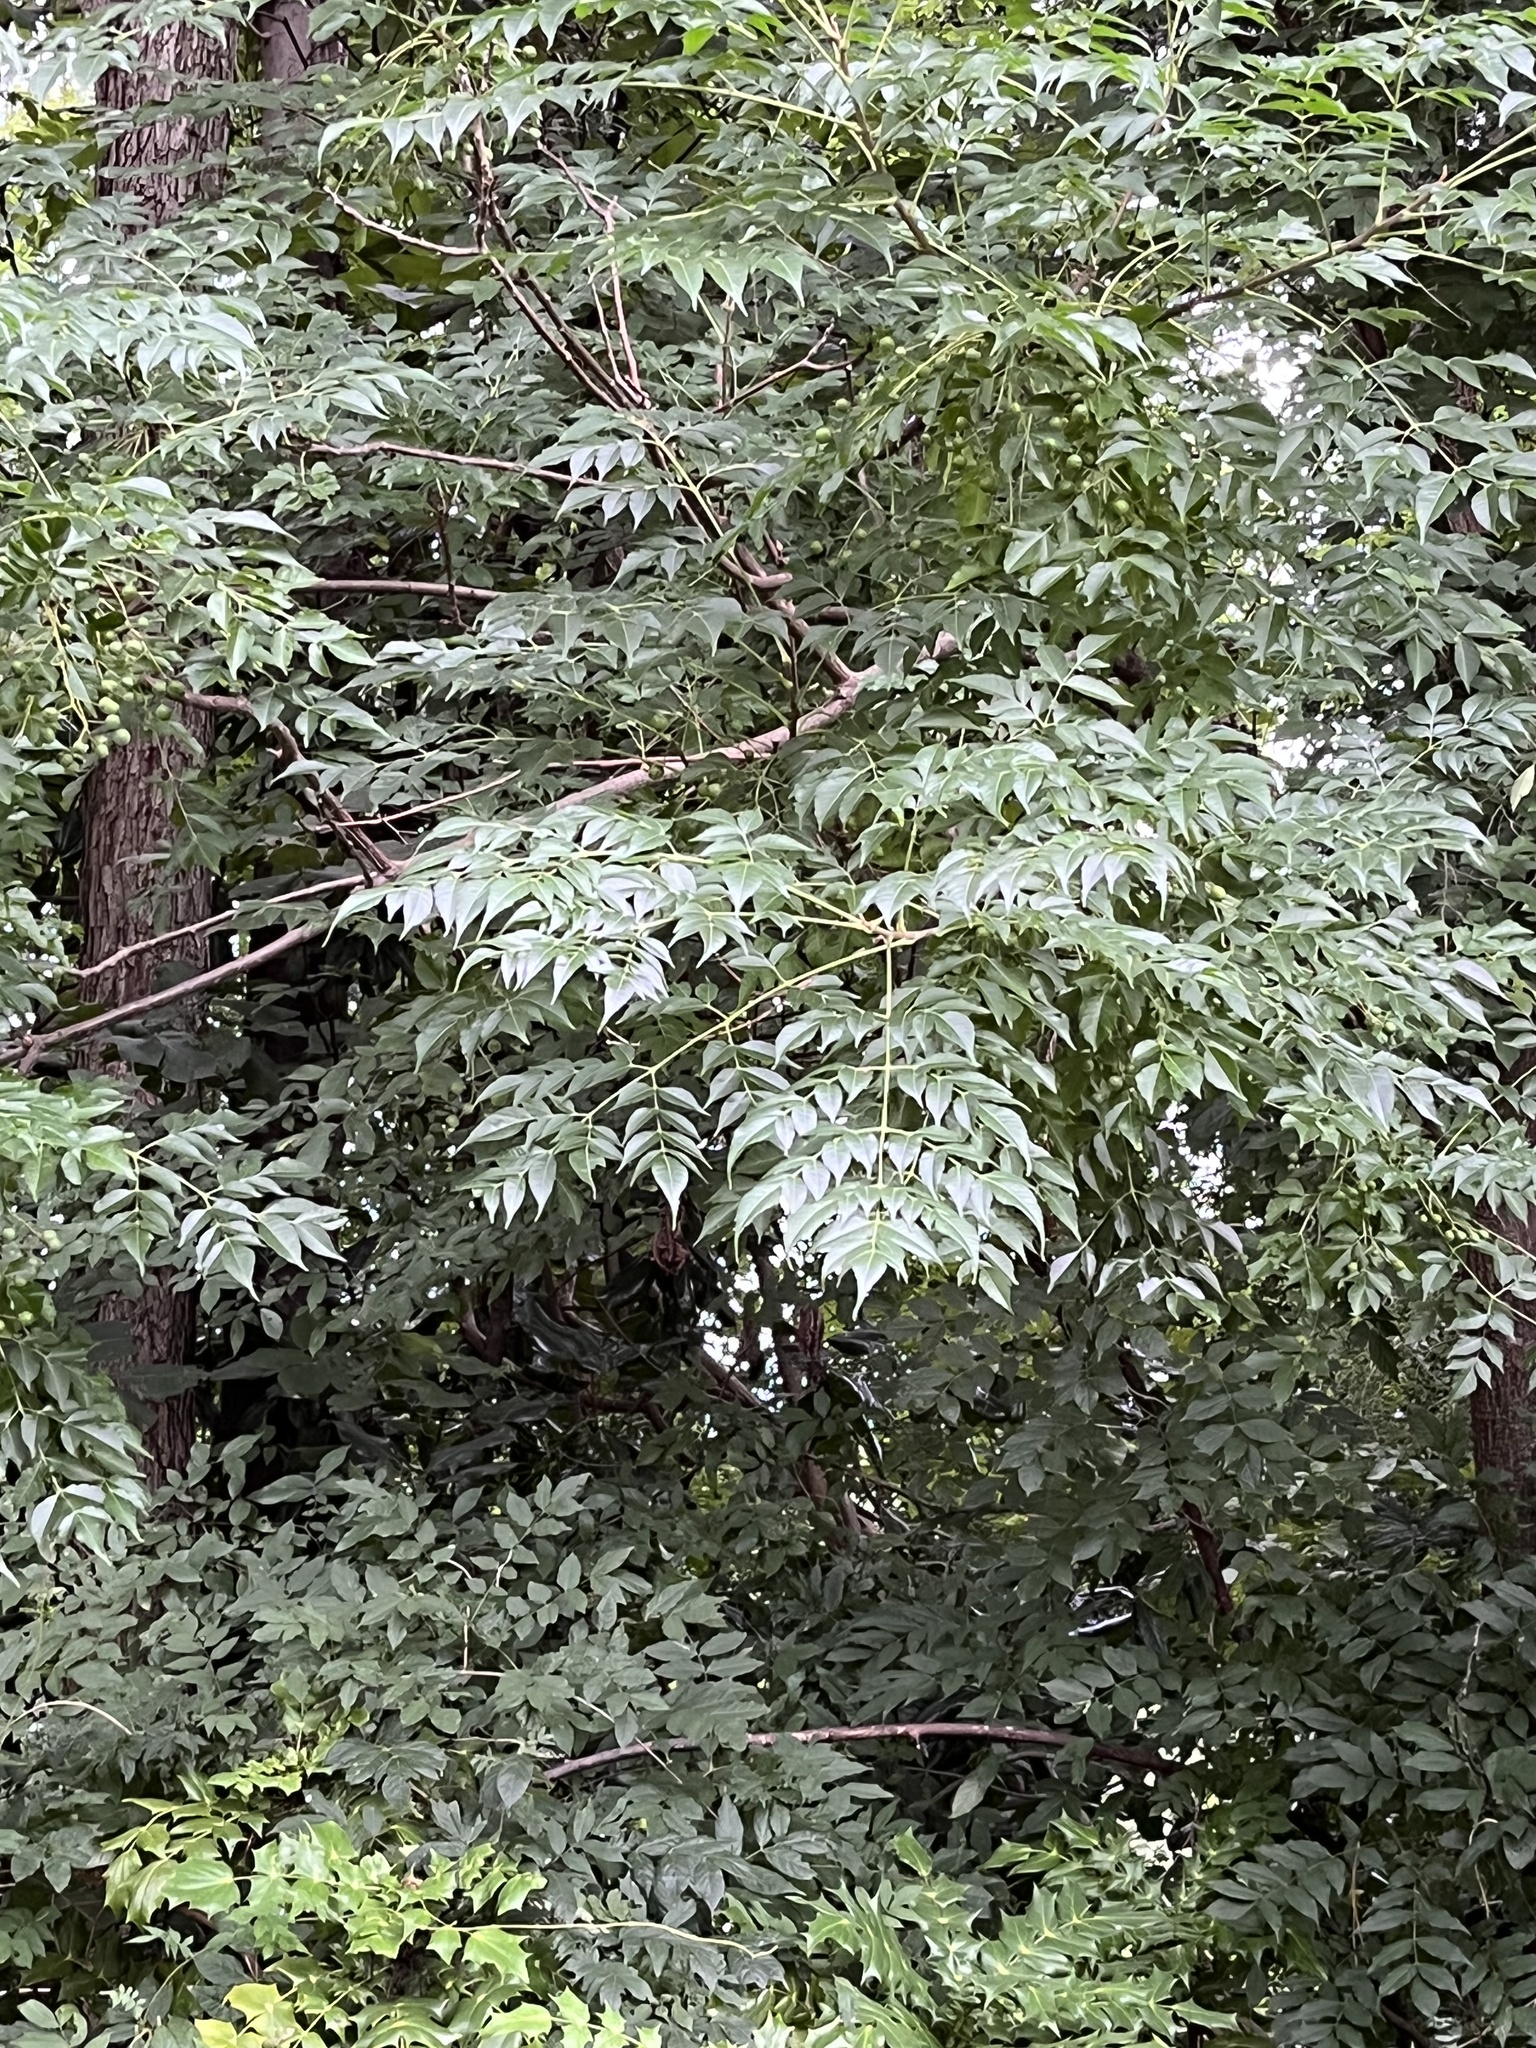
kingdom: Plantae
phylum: Tracheophyta
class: Magnoliopsida
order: Sapindales
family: Meliaceae
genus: Melia
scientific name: Melia azedarach
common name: Chinaberrytree
